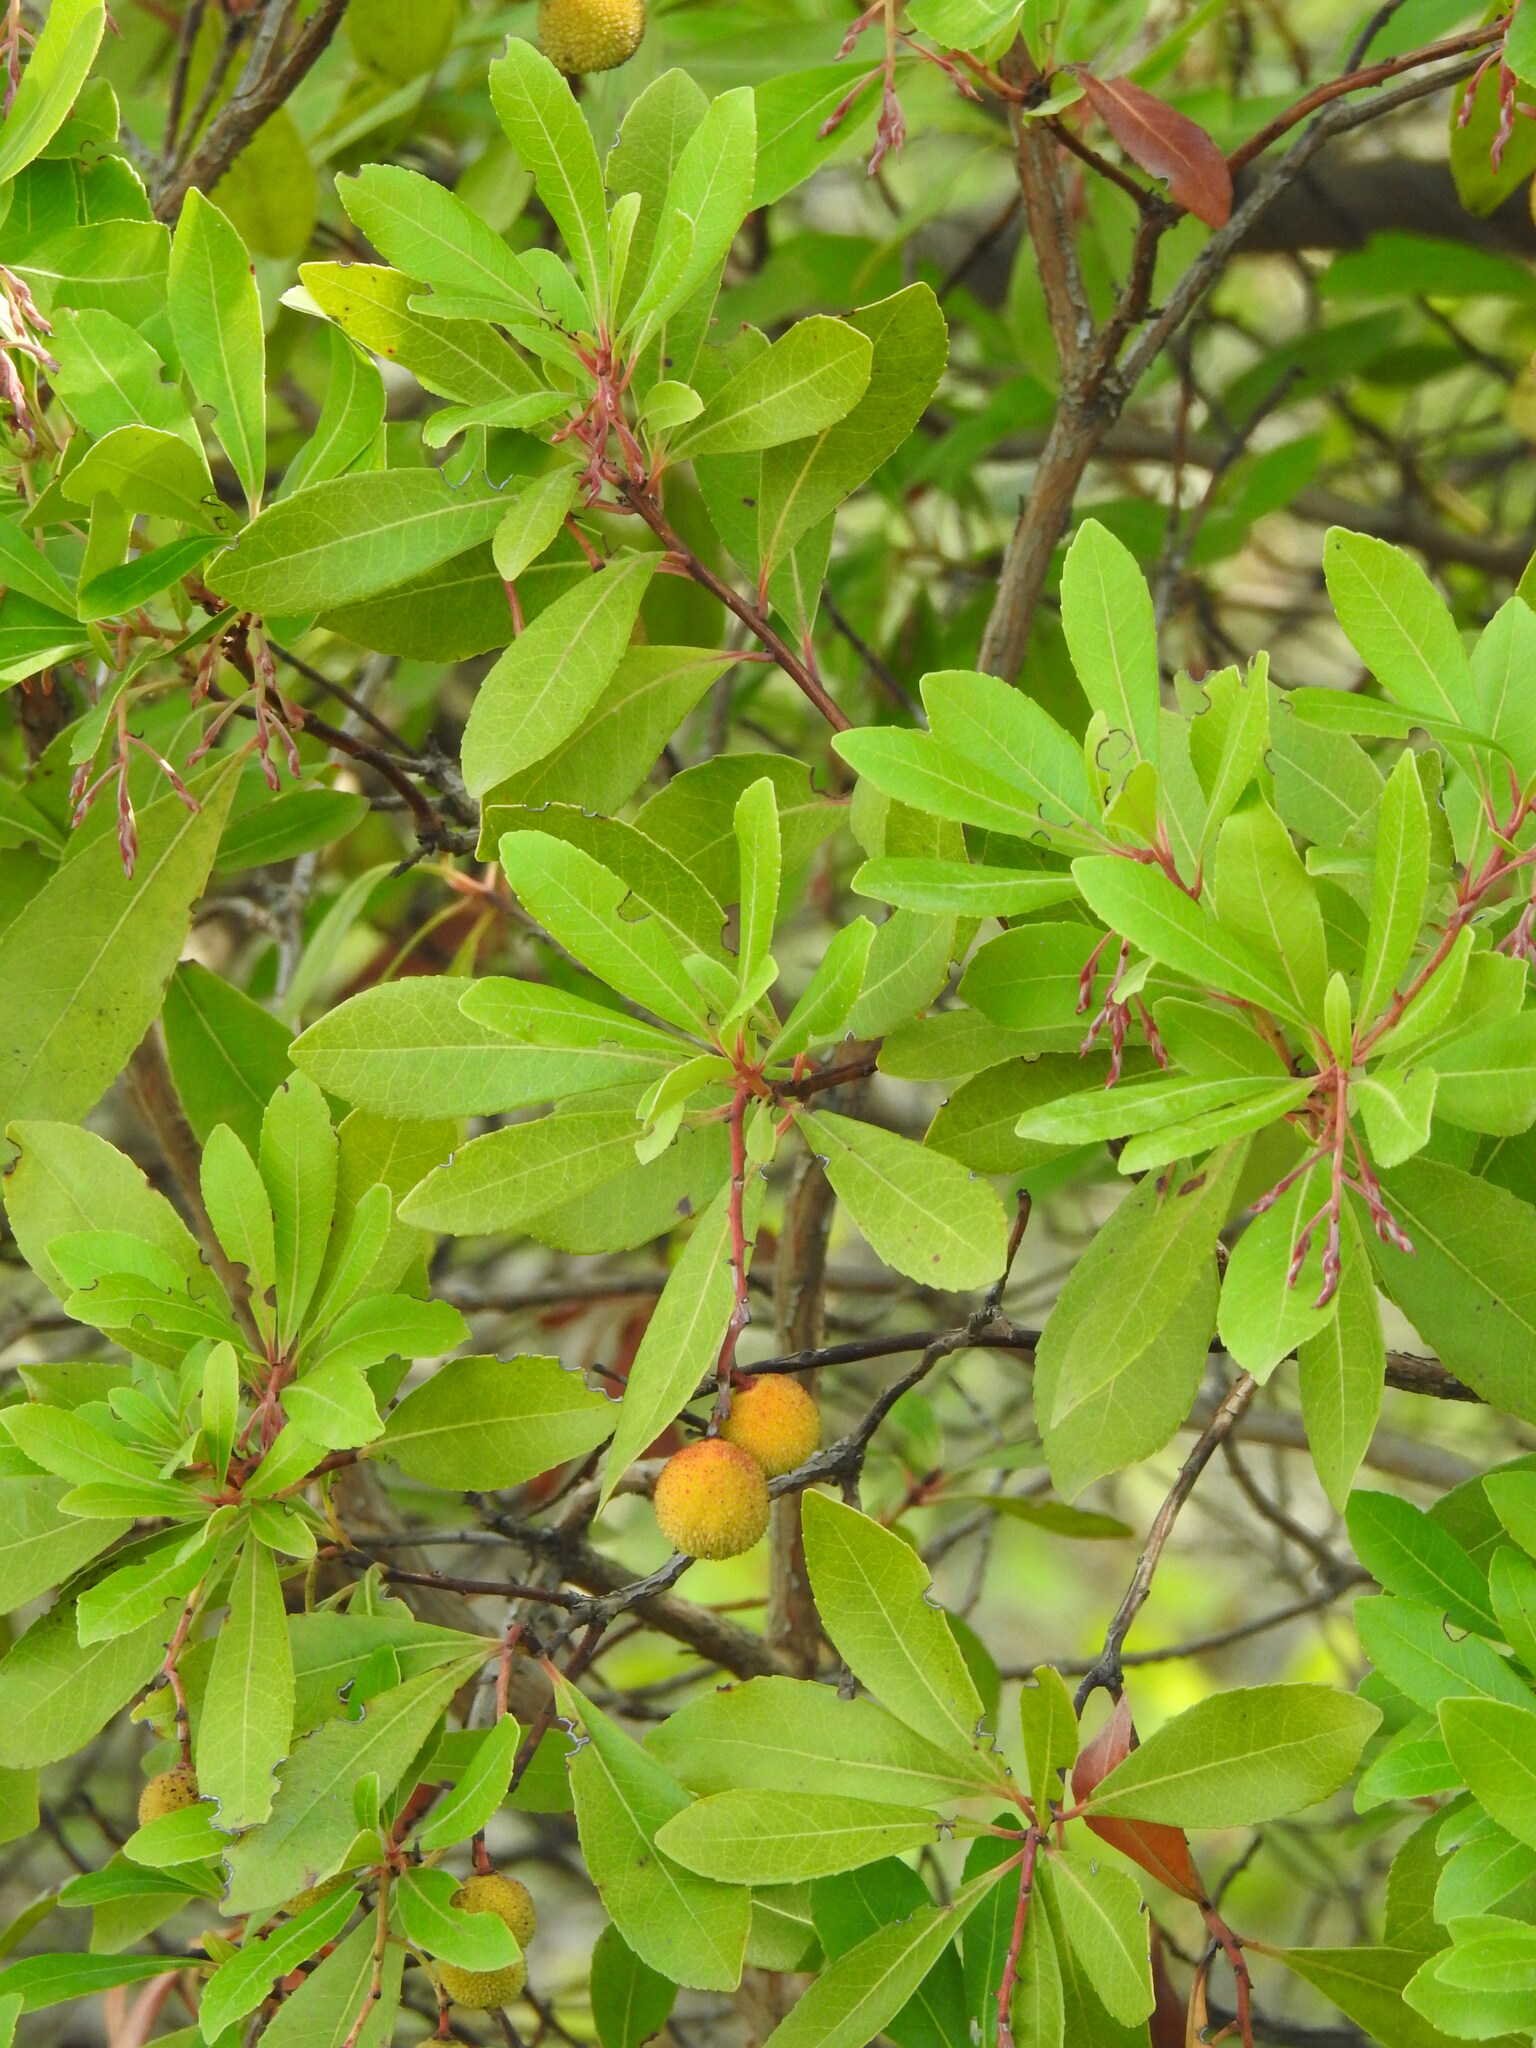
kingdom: Plantae
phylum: Tracheophyta
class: Magnoliopsida
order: Ericales
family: Ericaceae
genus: Arbutus
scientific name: Arbutus unedo
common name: Strawberry-tree
